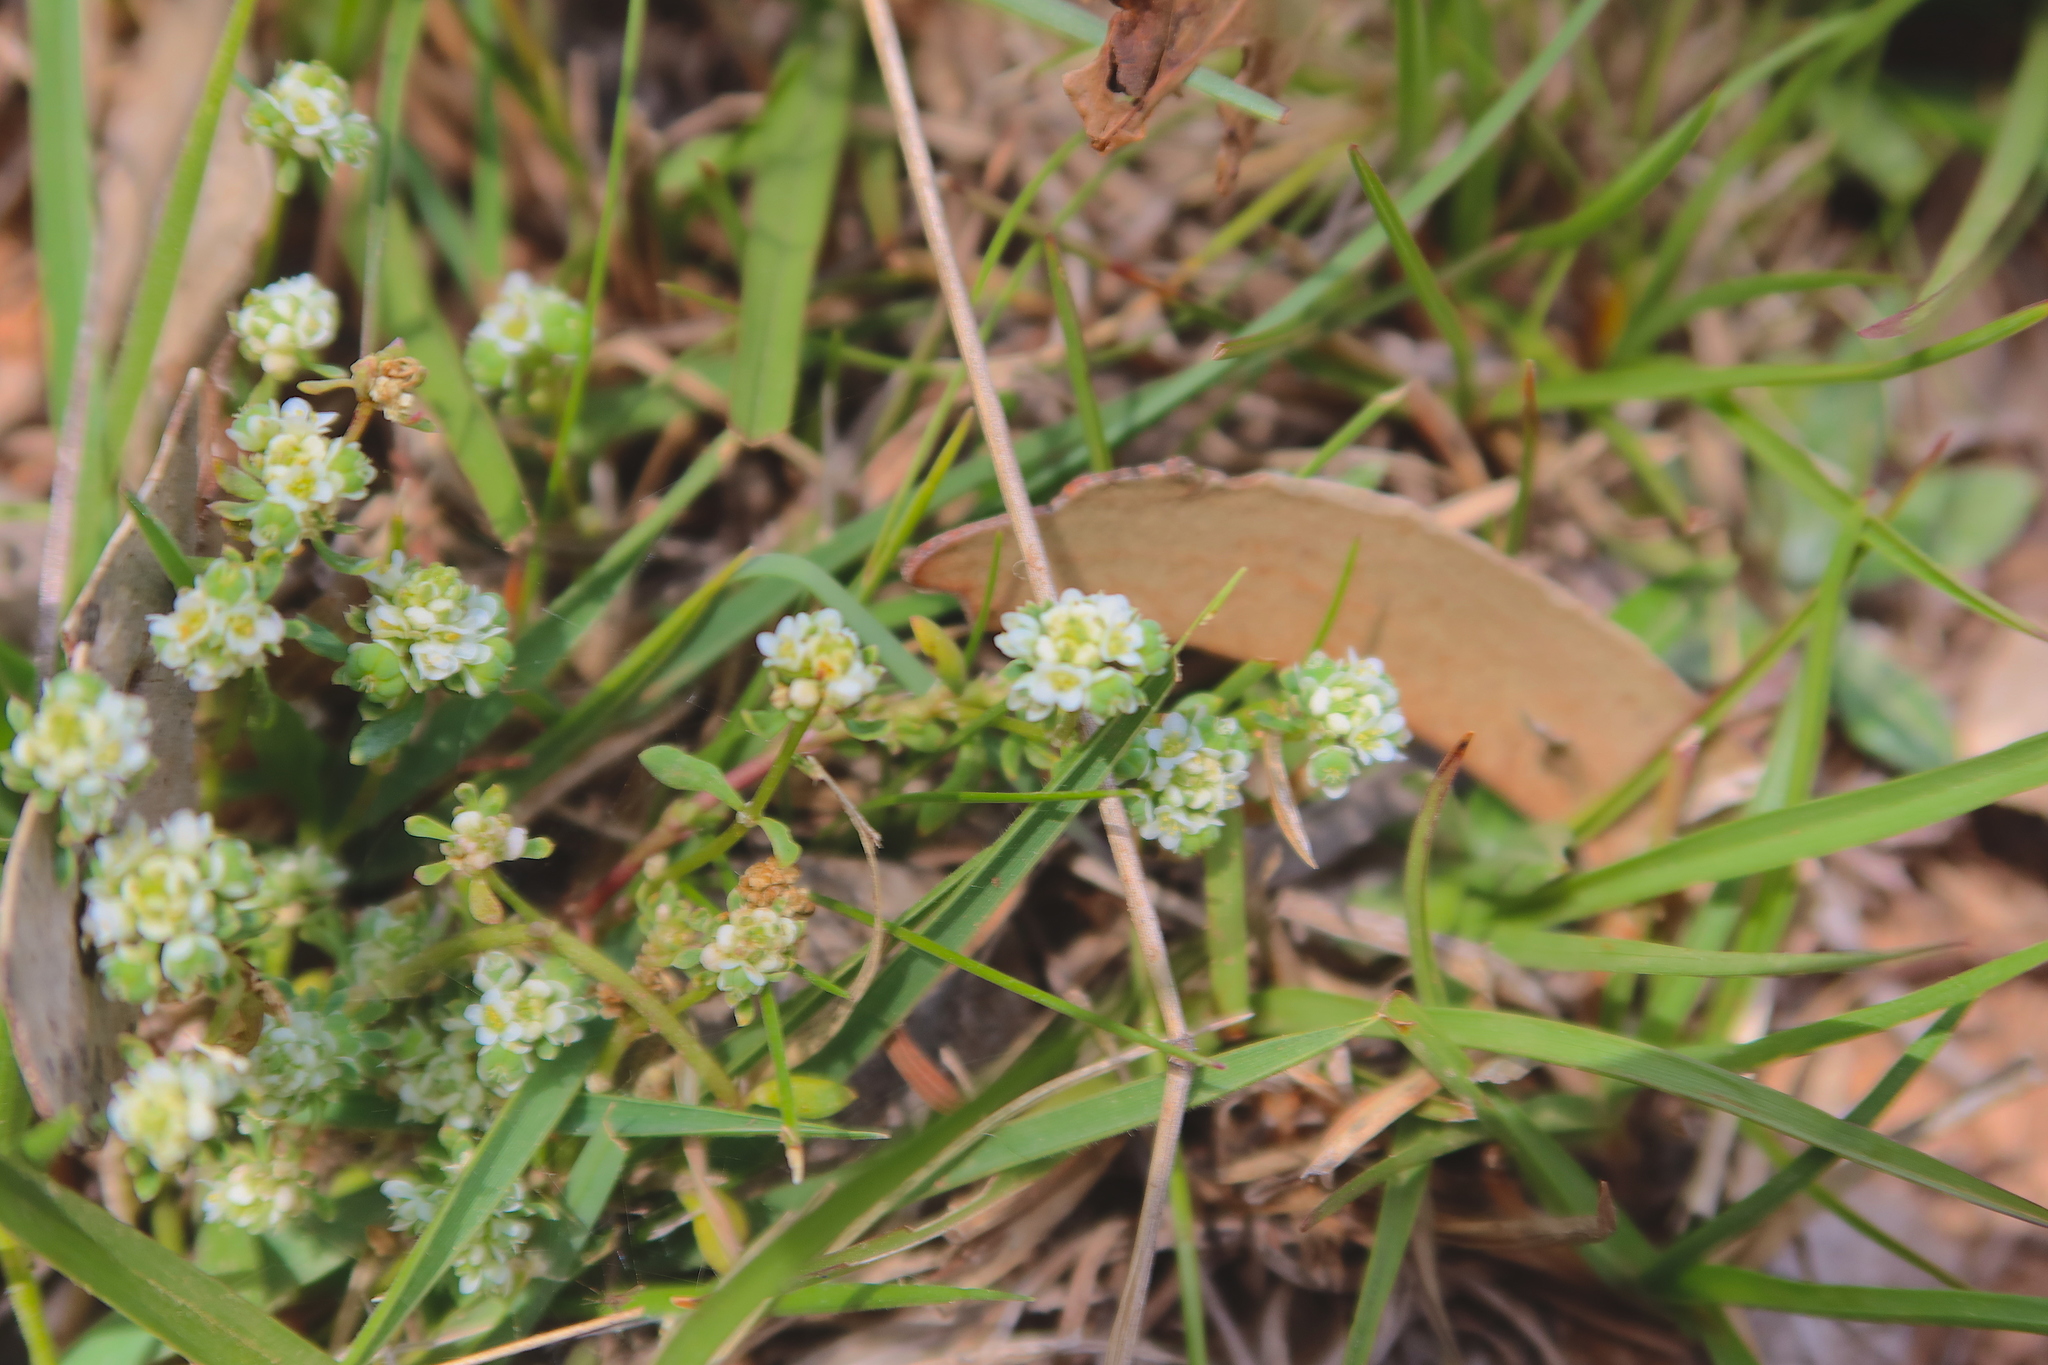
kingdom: Plantae
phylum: Tracheophyta
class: Magnoliopsida
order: Malpighiales
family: Phyllanthaceae
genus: Poranthera
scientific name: Poranthera microphylla
